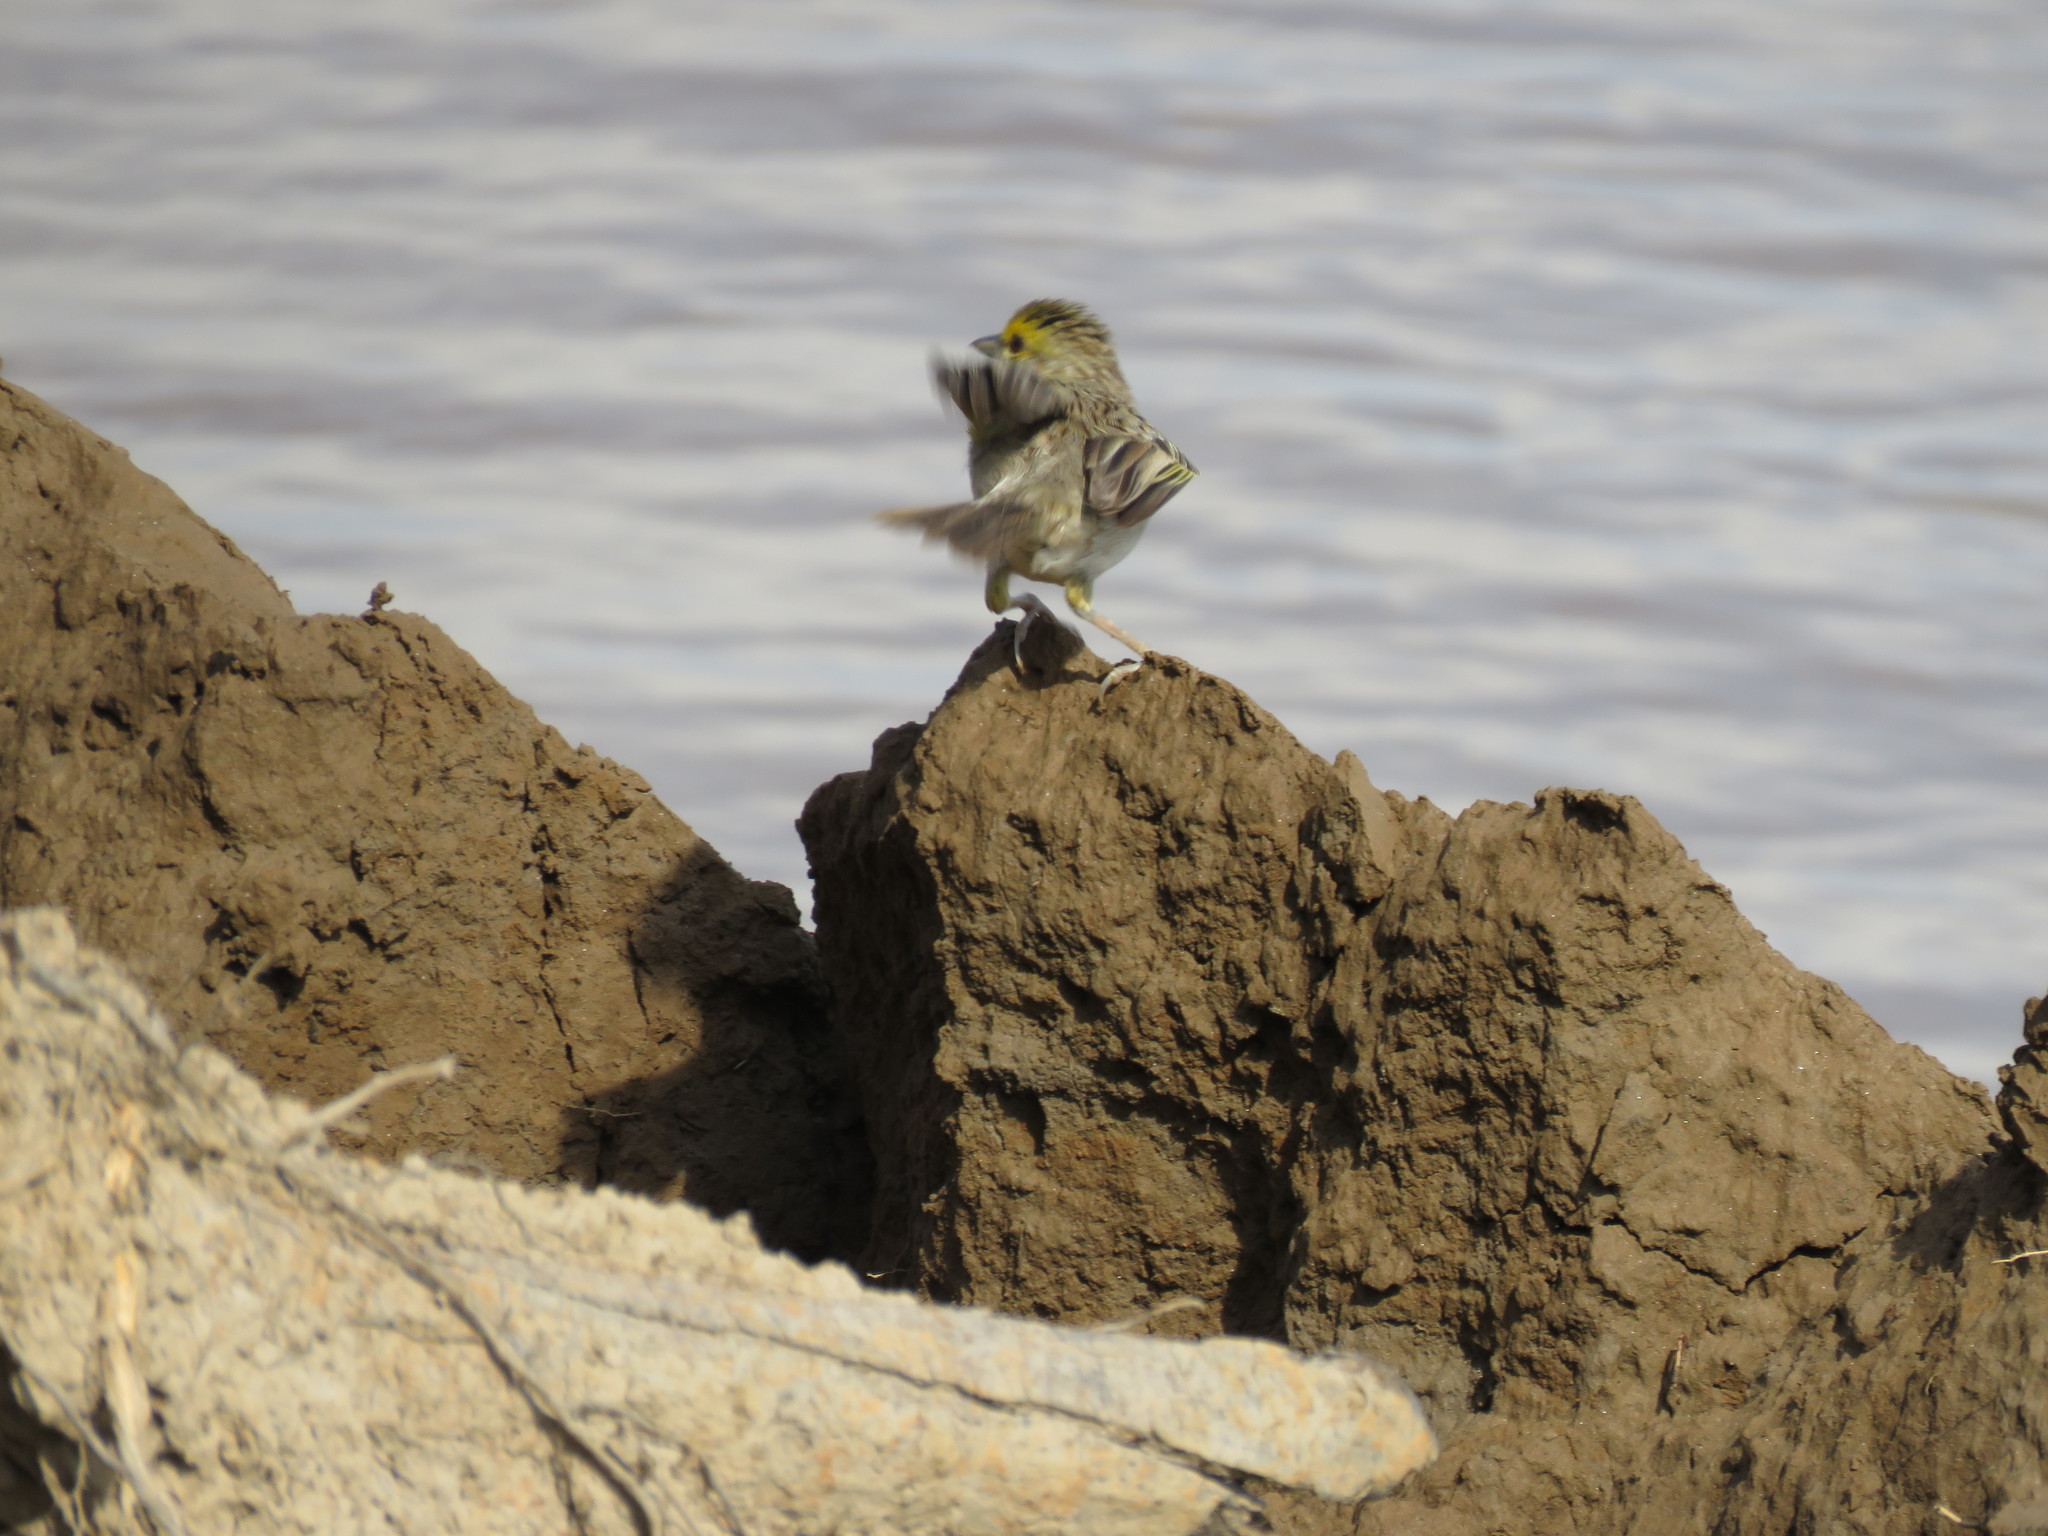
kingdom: Animalia
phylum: Chordata
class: Aves
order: Passeriformes
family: Passerellidae
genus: Ammodramus
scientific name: Ammodramus aurifrons
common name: Yellow-browed sparrow
